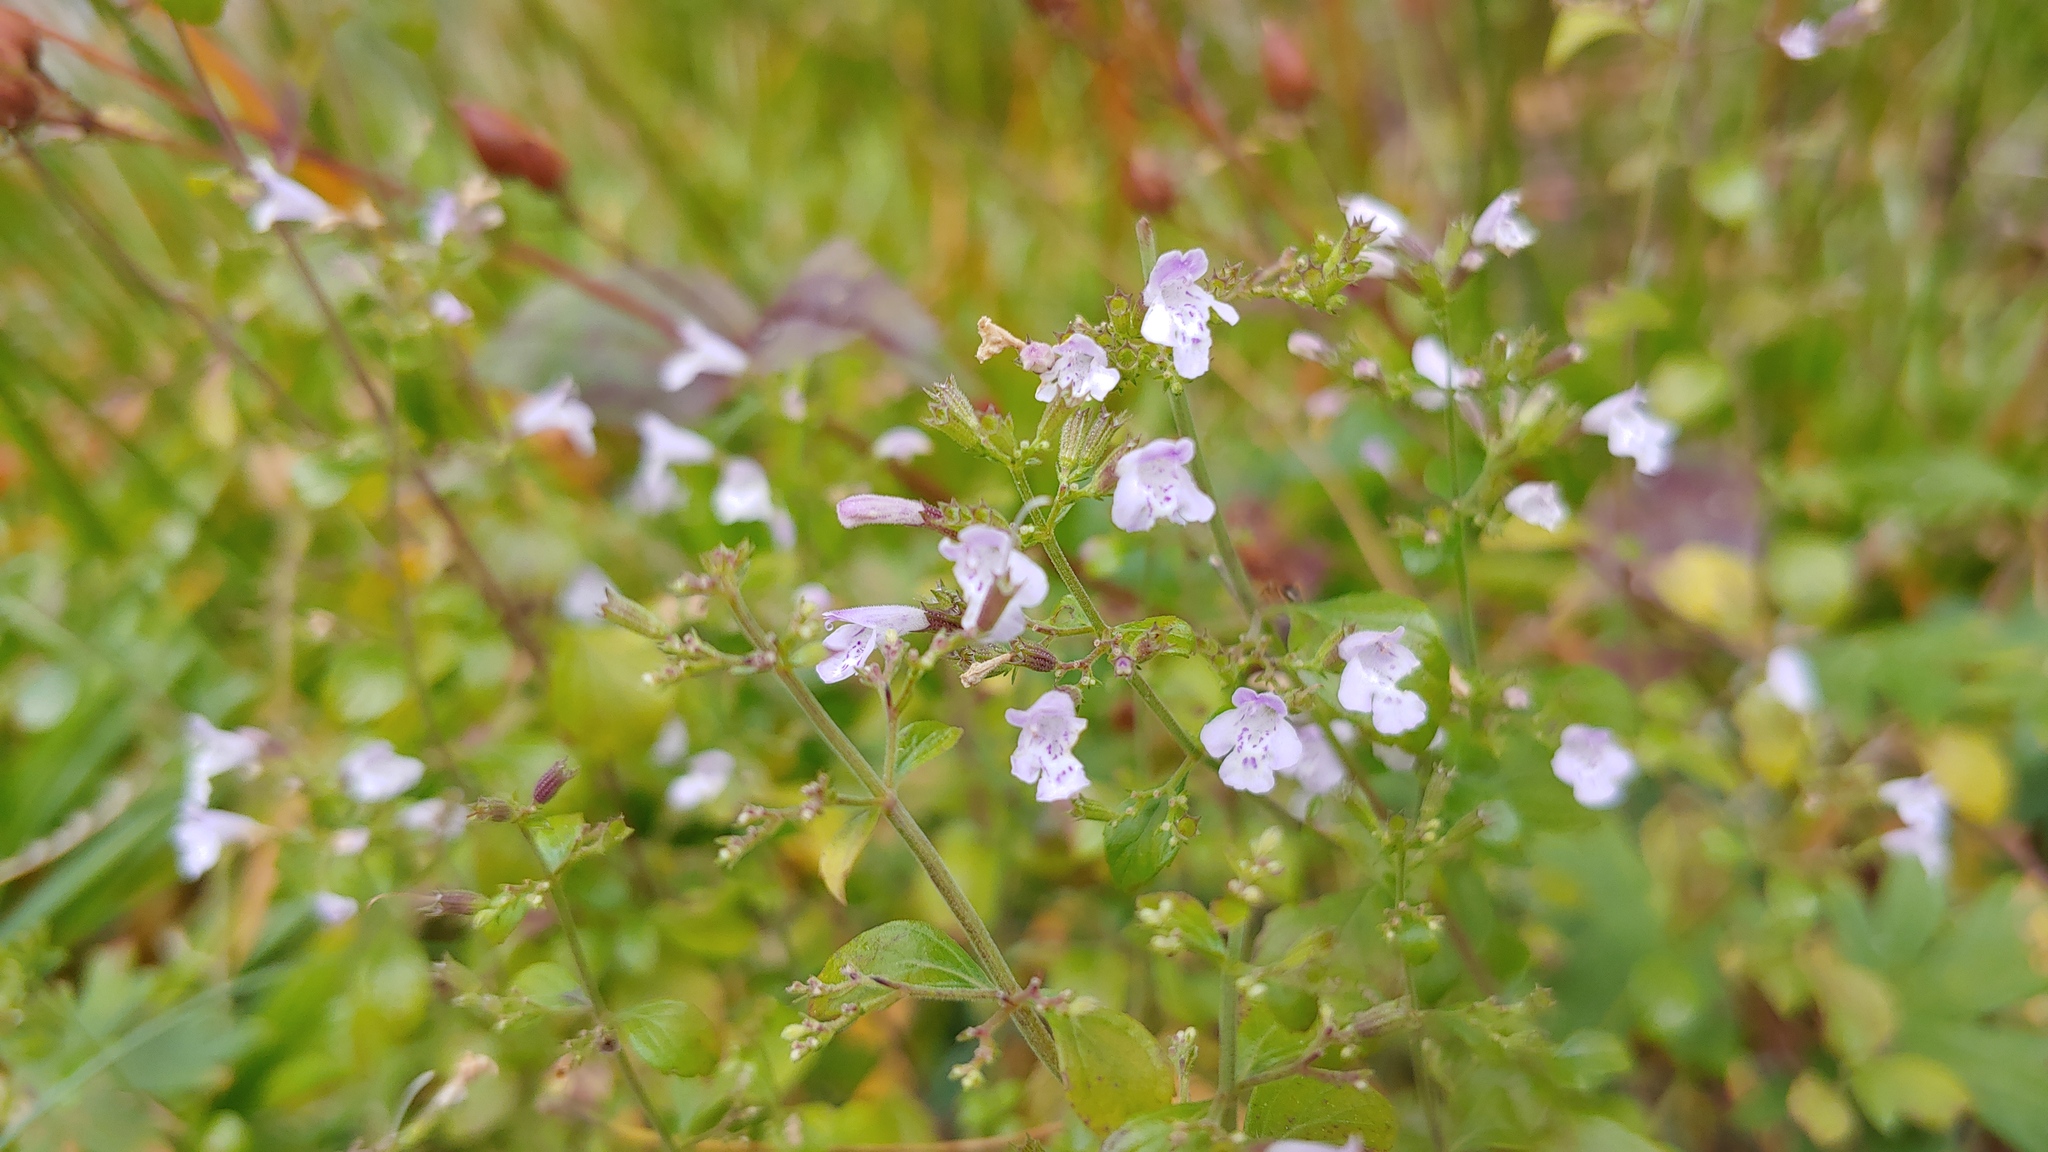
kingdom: Plantae
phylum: Tracheophyta
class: Magnoliopsida
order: Lamiales
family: Lamiaceae
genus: Clinopodium
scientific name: Clinopodium nepeta
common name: Lesser calamint
